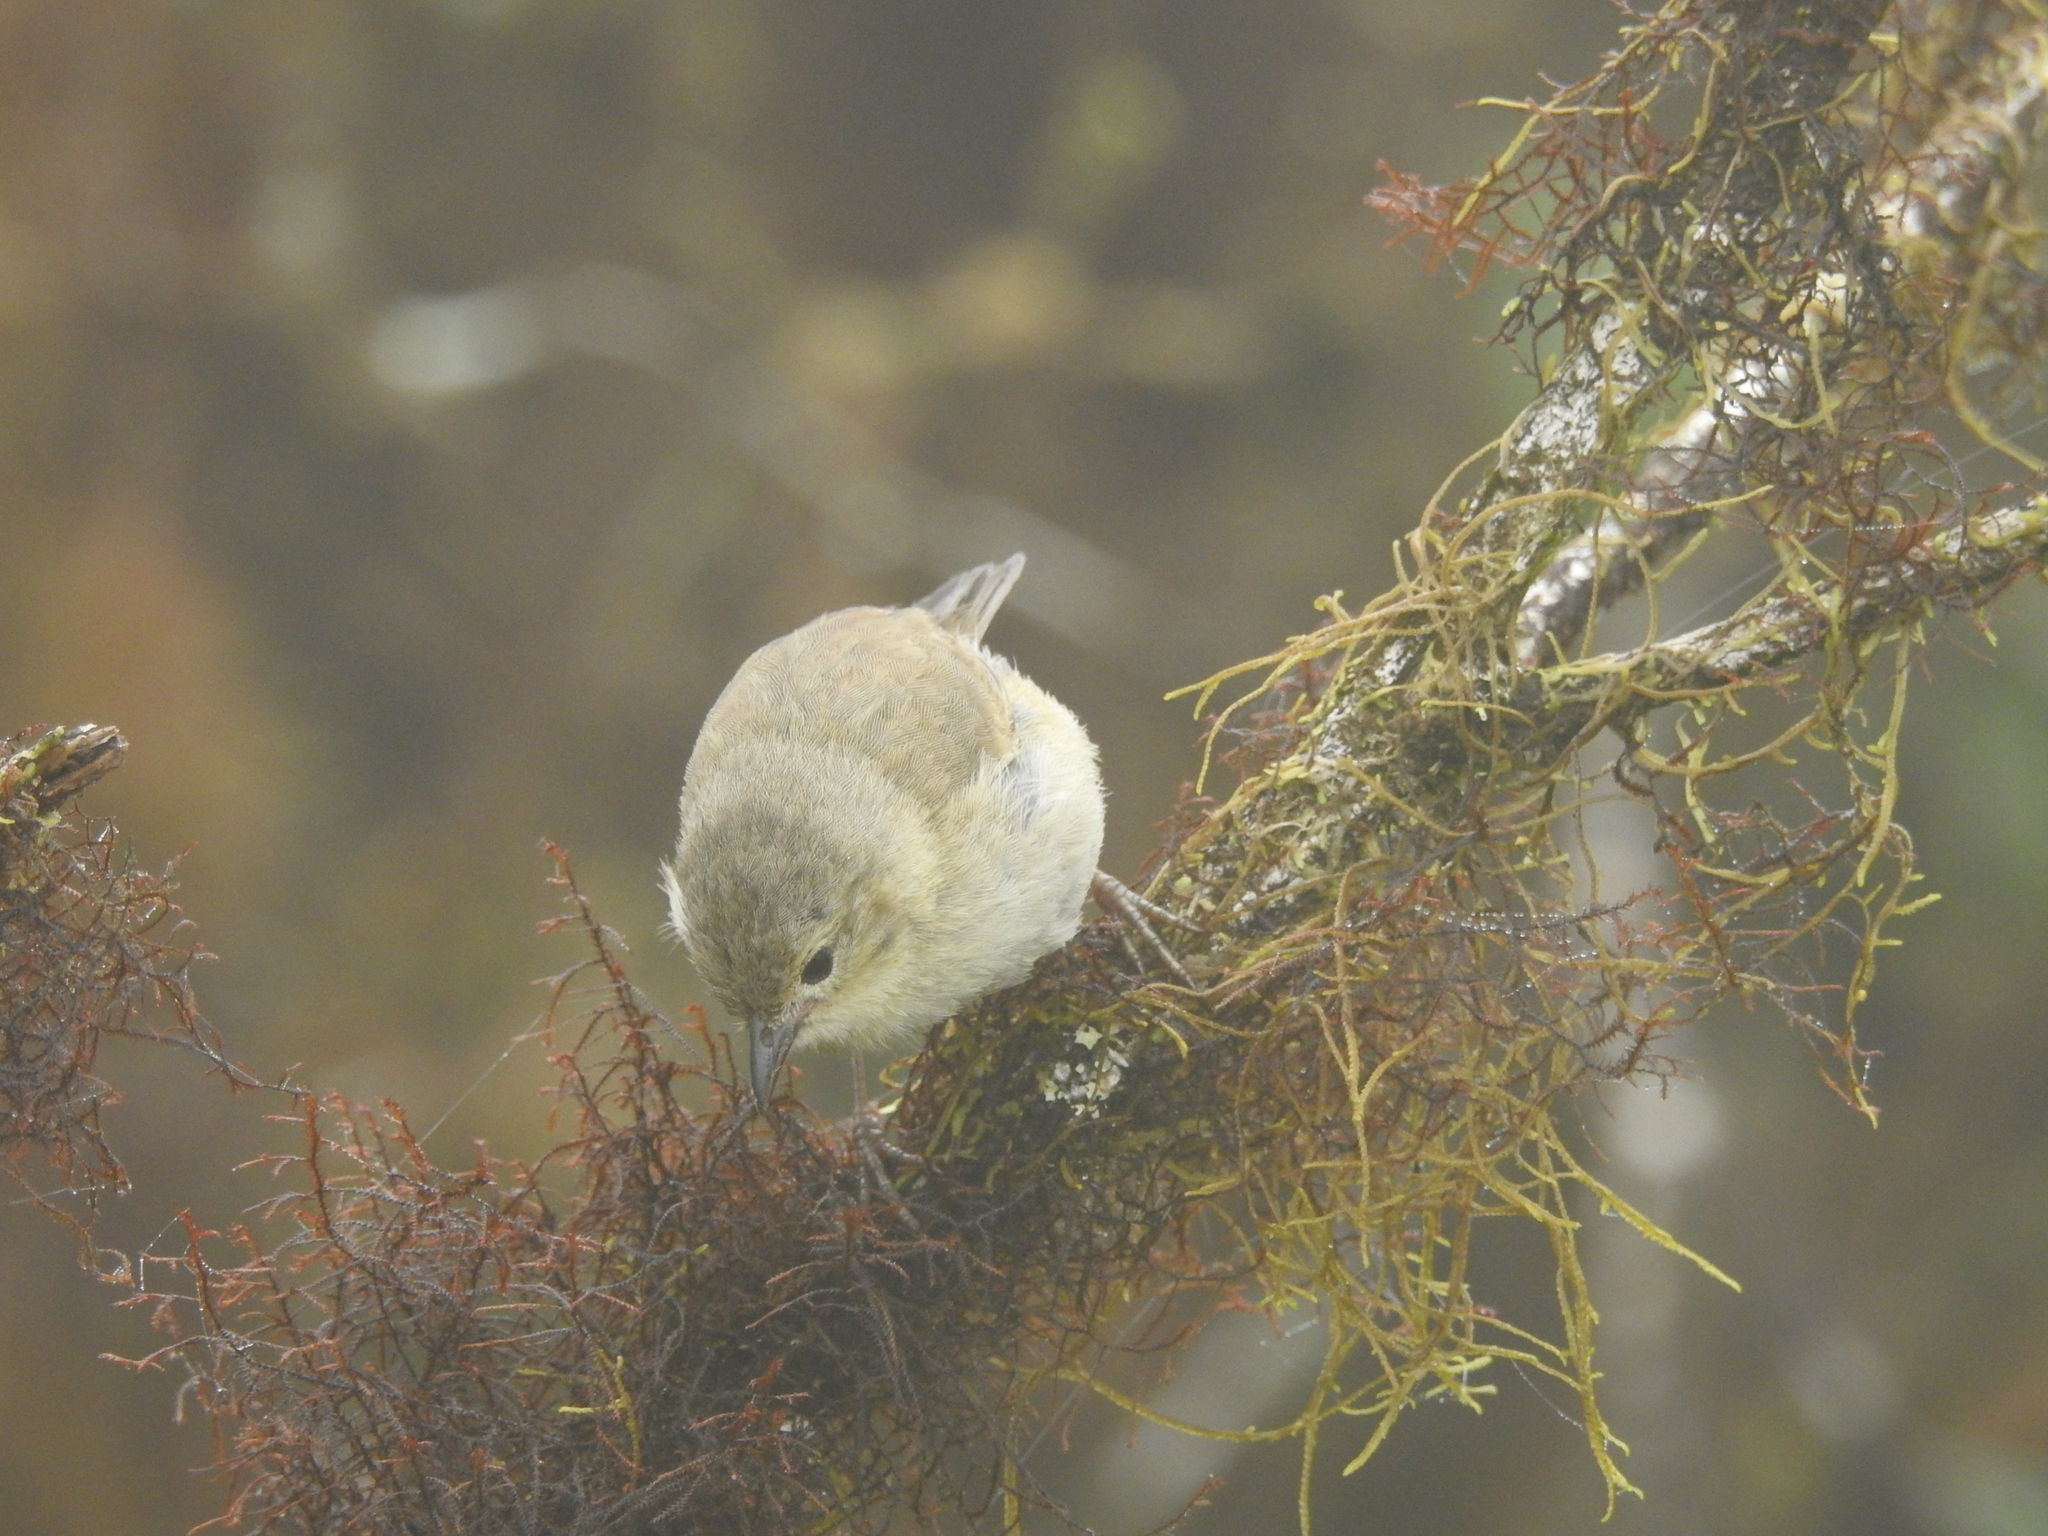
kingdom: Animalia
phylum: Chordata
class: Aves
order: Passeriformes
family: Thraupidae
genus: Certhidea
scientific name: Certhidea olivacea
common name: Green warbler-finch
